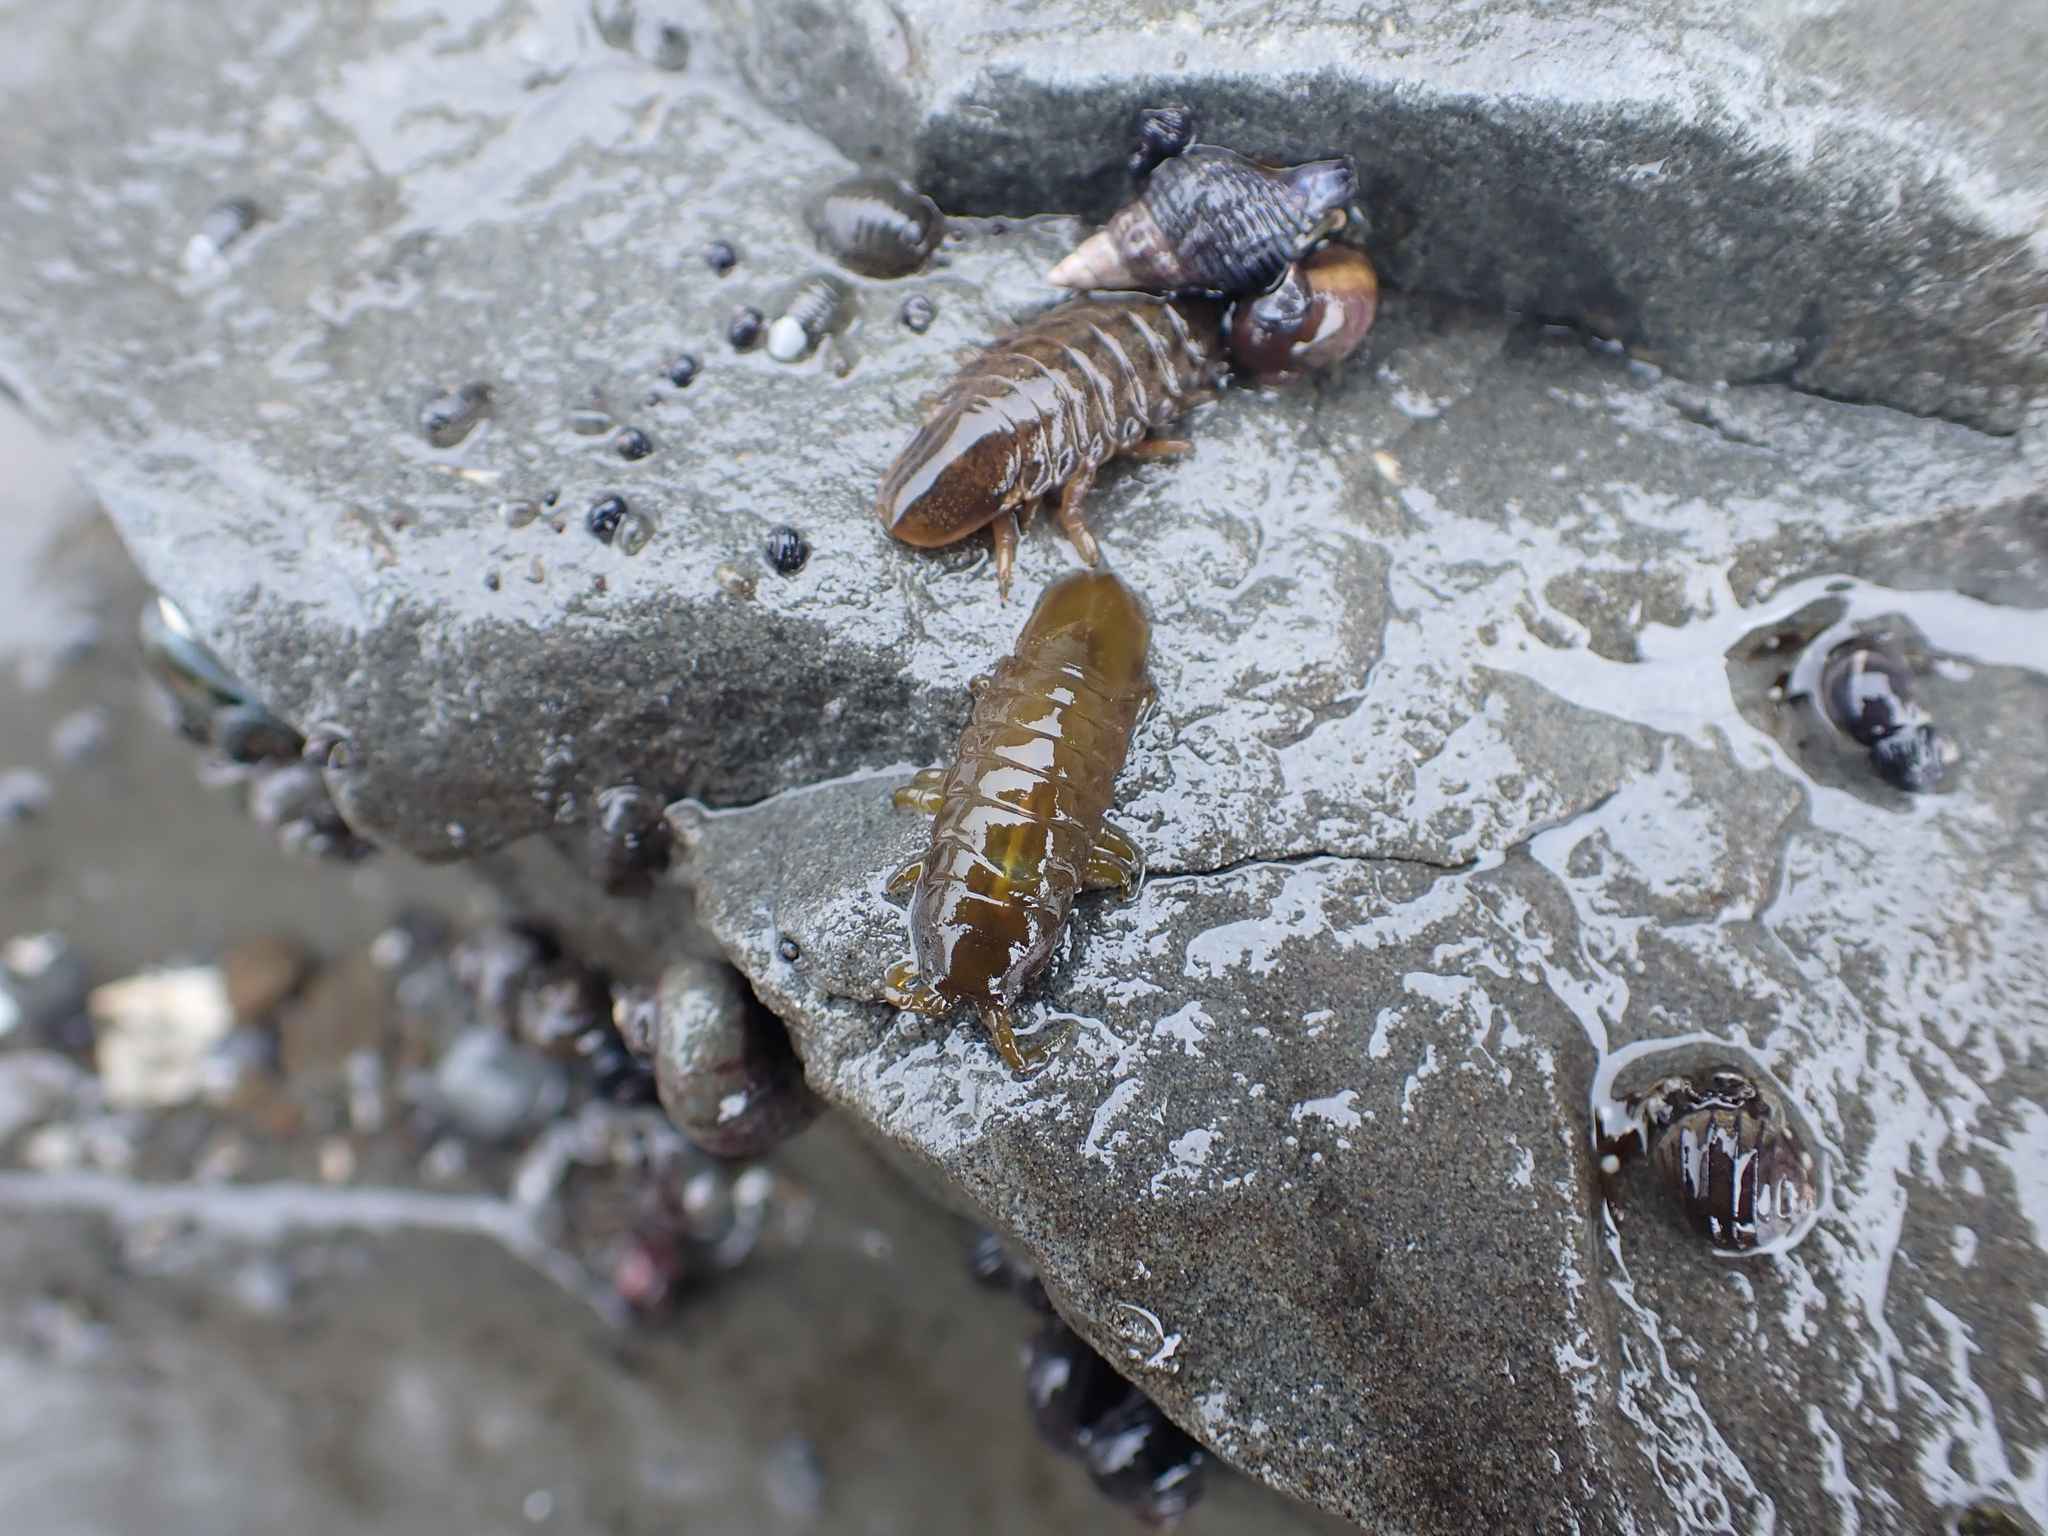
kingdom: Animalia
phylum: Arthropoda
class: Malacostraca
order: Isopoda
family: Idoteidae
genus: Pentidotea
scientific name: Pentidotea wosnesenskii
